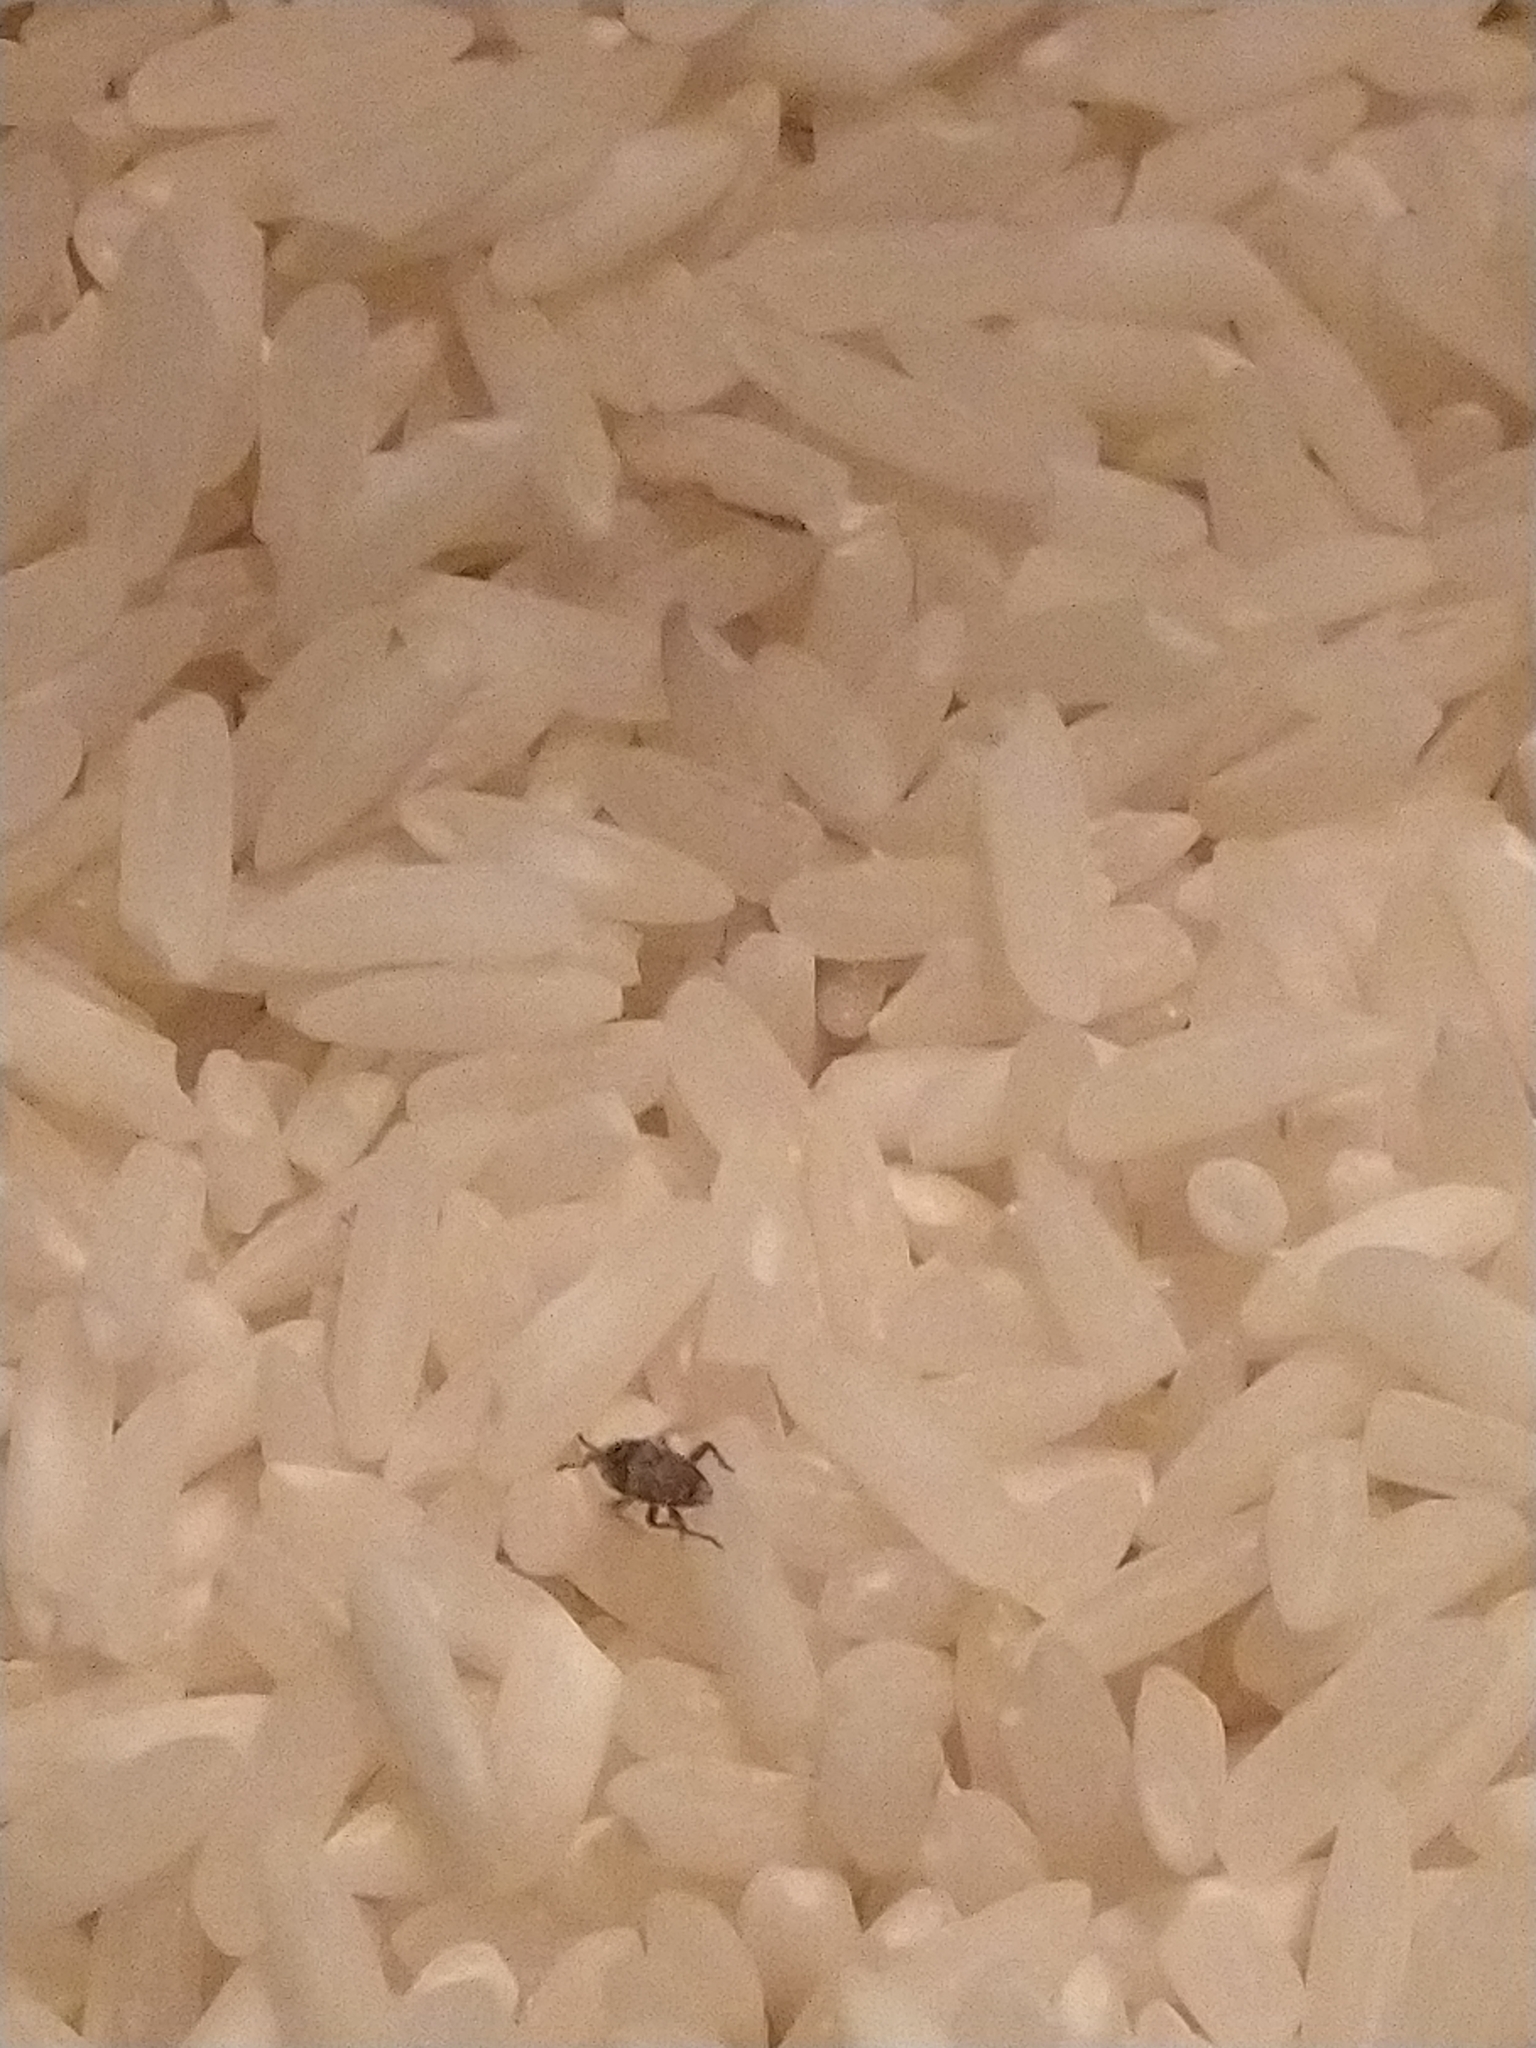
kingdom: Animalia
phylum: Arthropoda
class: Insecta
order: Coleoptera
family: Dryophthoridae
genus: Sitophilus
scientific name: Sitophilus oryzae
